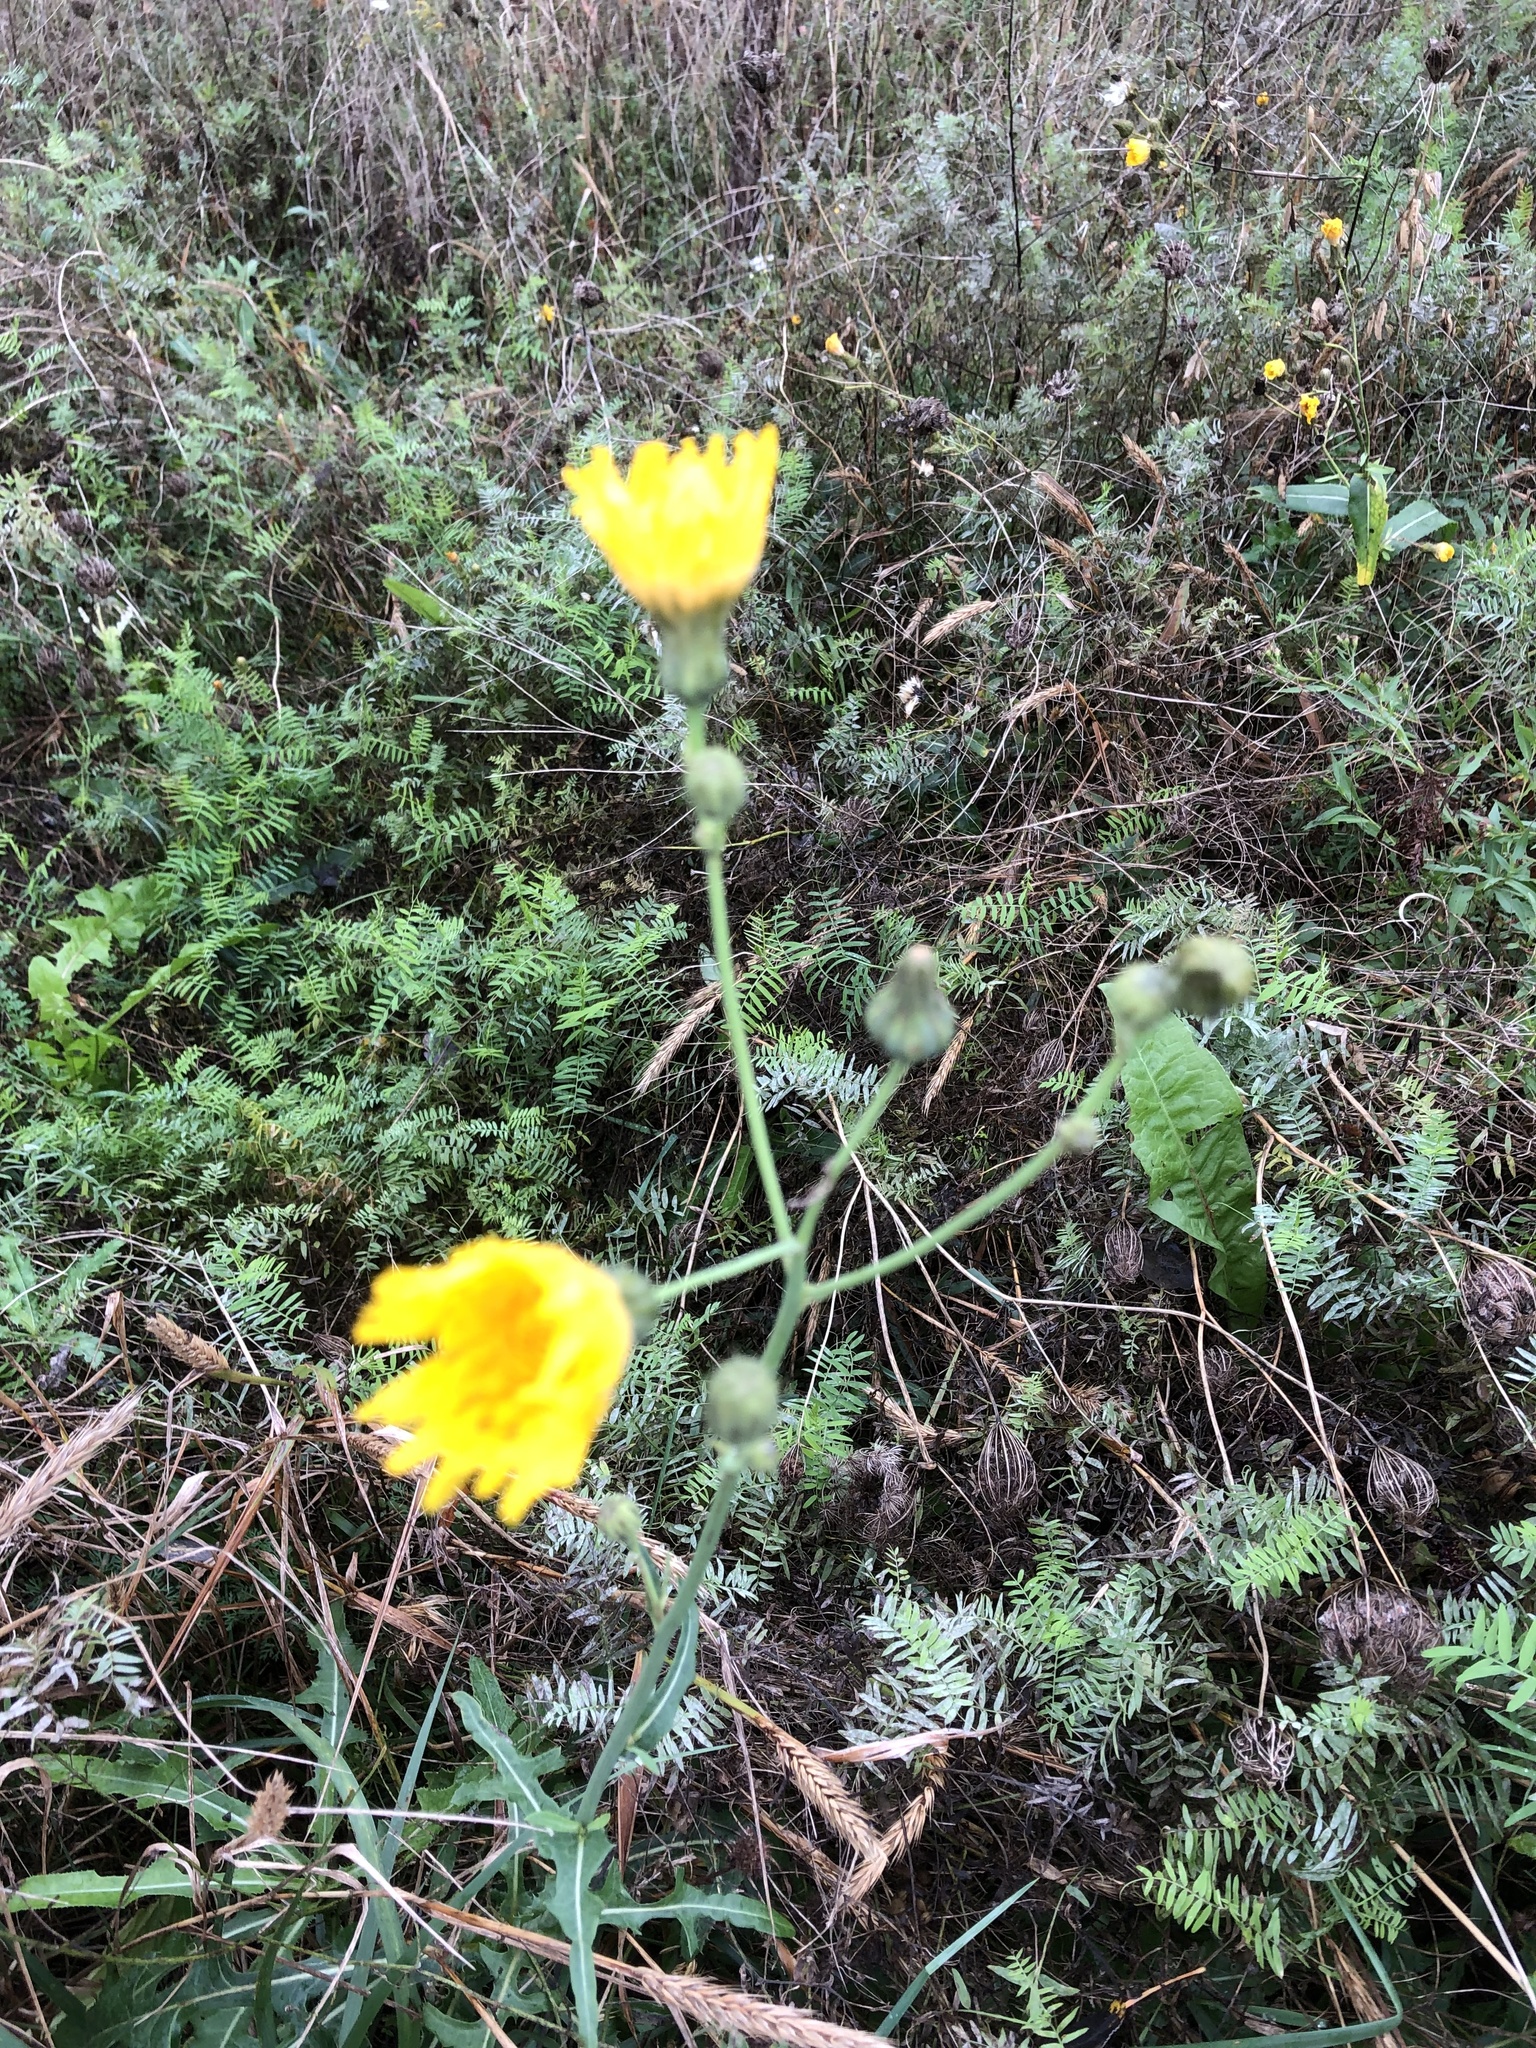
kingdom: Plantae
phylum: Tracheophyta
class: Magnoliopsida
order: Asterales
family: Asteraceae
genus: Sonchus
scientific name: Sonchus arvensis
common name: Perennial sow-thistle
